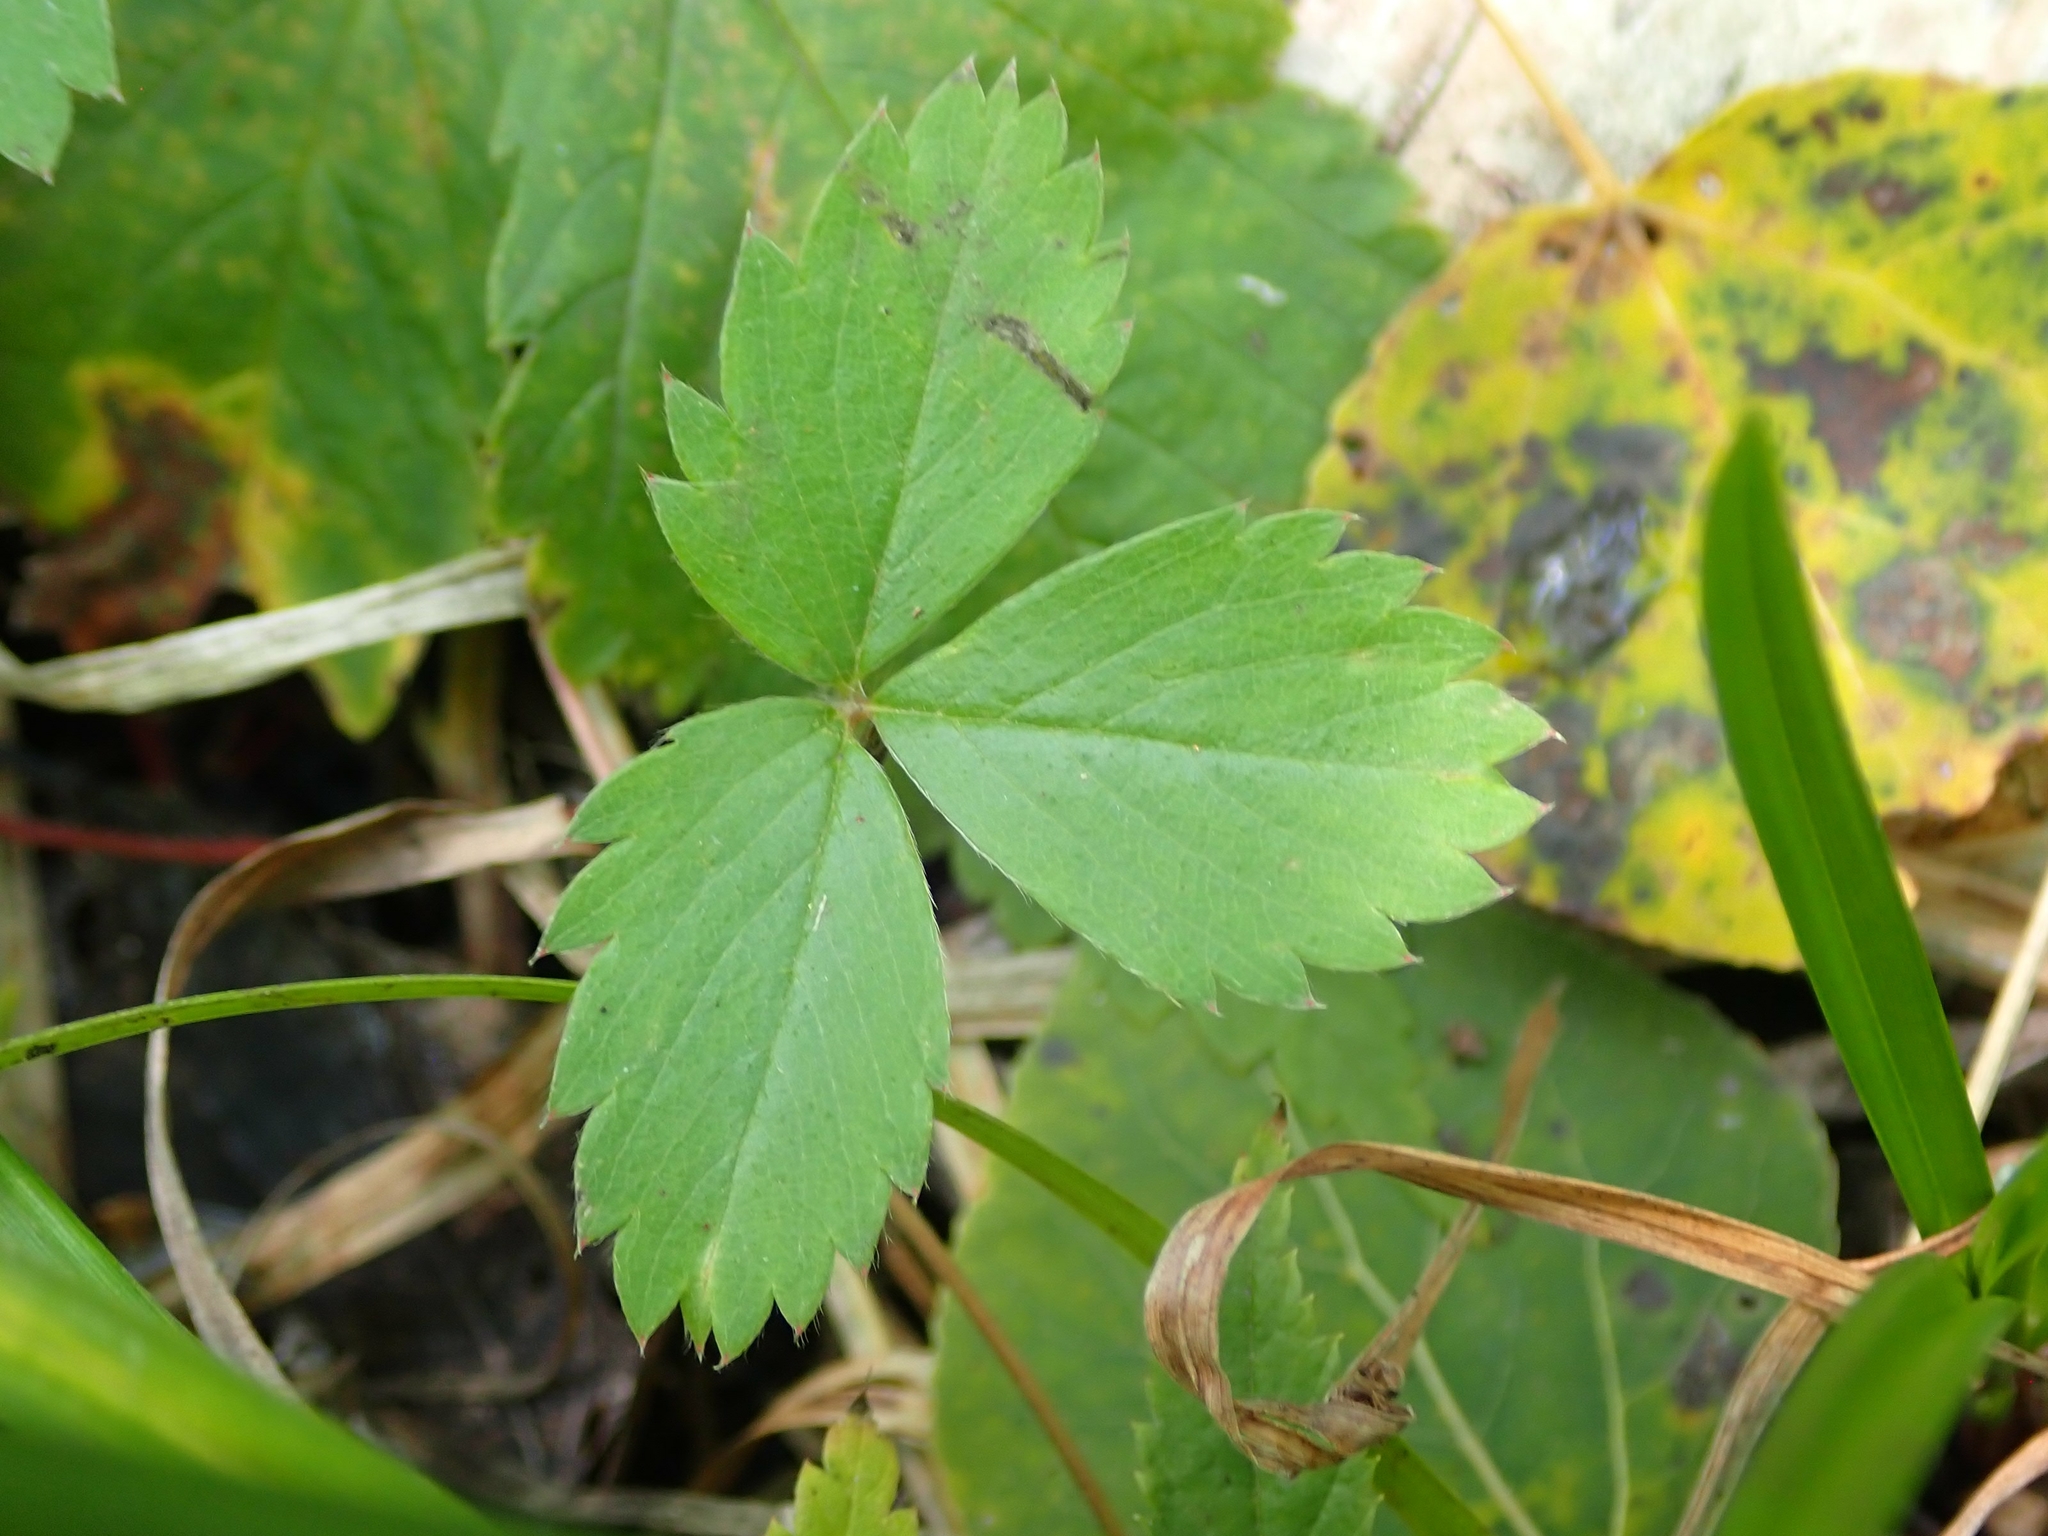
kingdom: Plantae
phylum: Tracheophyta
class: Magnoliopsida
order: Rosales
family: Rosaceae
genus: Fragaria
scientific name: Fragaria virginiana
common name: Thickleaved wild strawberry
